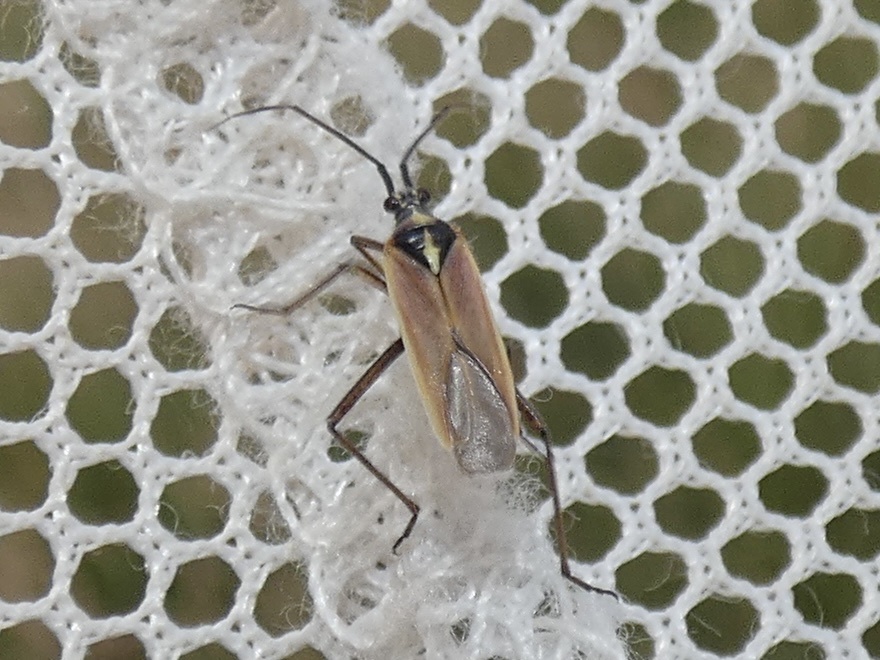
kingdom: Animalia
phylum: Arthropoda
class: Insecta
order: Hemiptera
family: Miridae
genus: Leptopterna
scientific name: Leptopterna ferrugata
